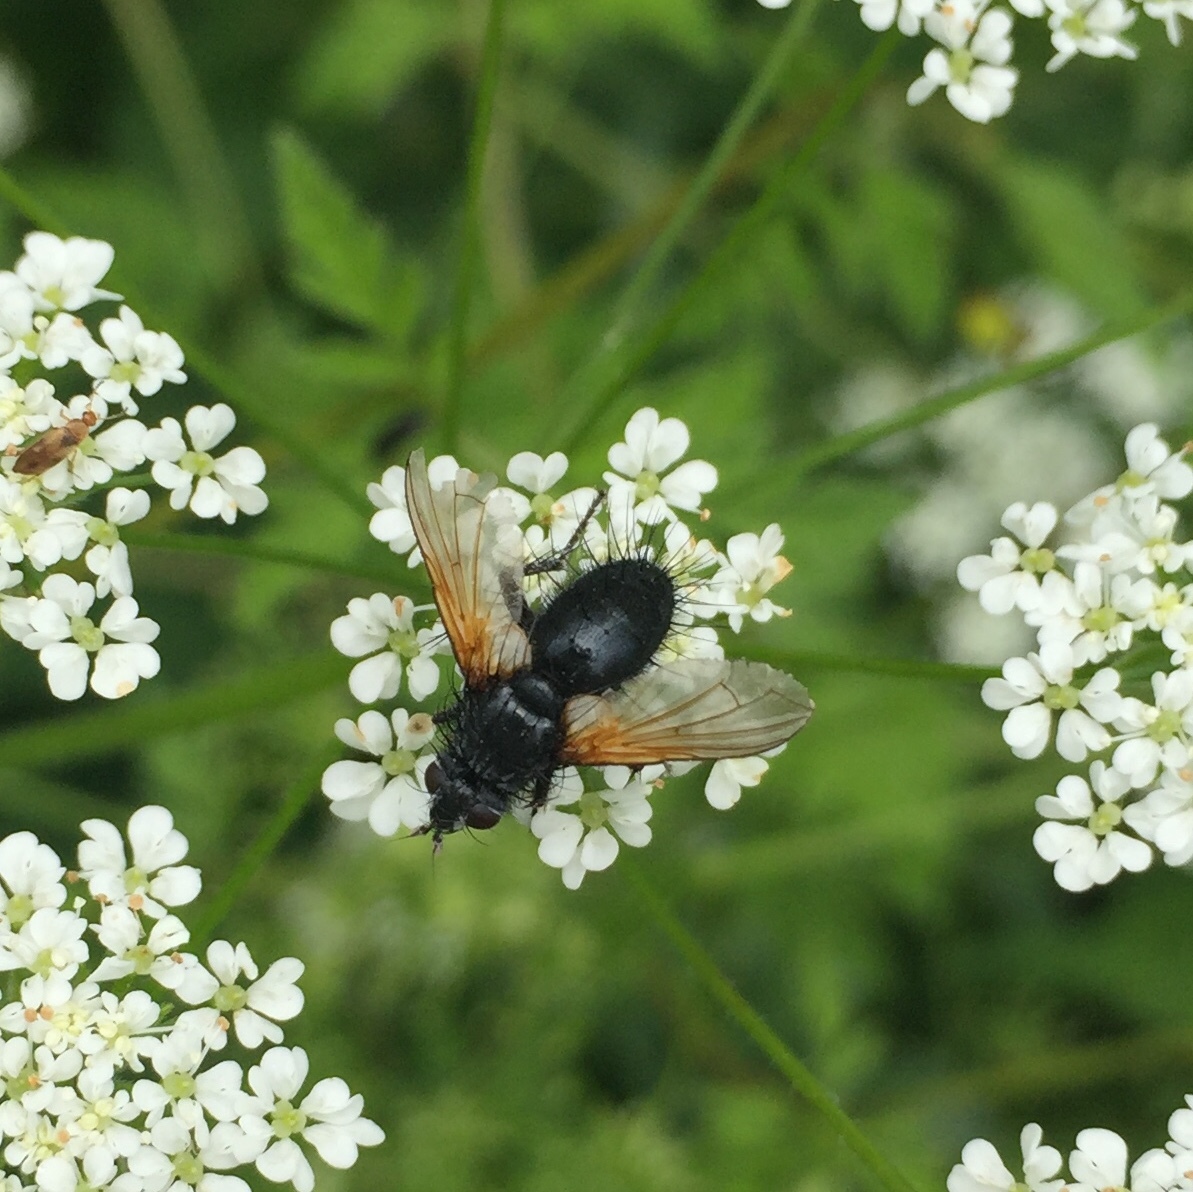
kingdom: Animalia
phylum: Arthropoda
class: Insecta
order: Diptera
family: Tachinidae
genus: Zophomyia
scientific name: Zophomyia temula
